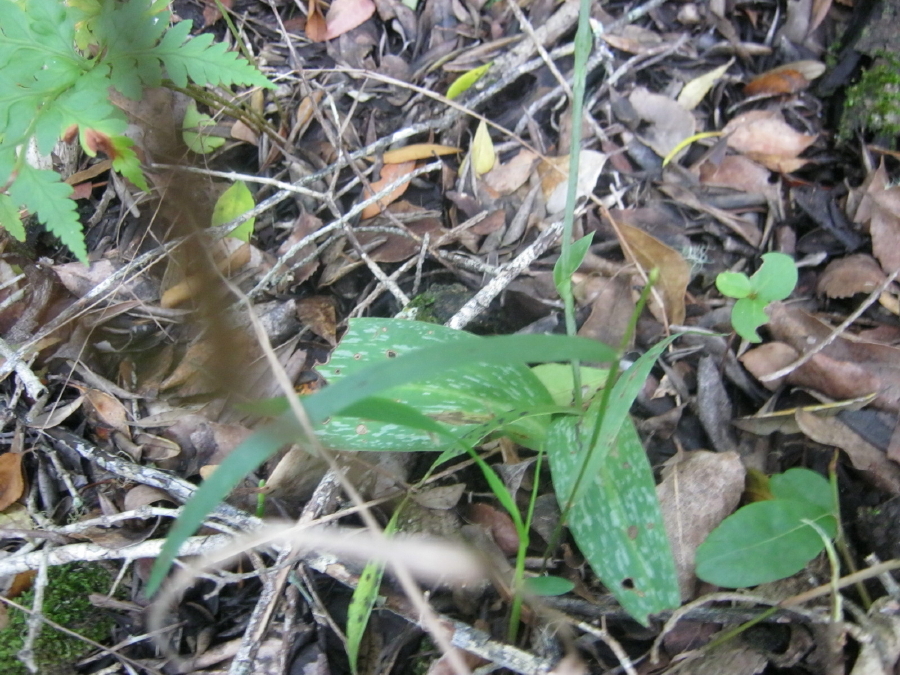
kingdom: Plantae
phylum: Tracheophyta
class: Liliopsida
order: Asparagales
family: Orchidaceae
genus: Habenaria
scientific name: Habenaria arenaria
